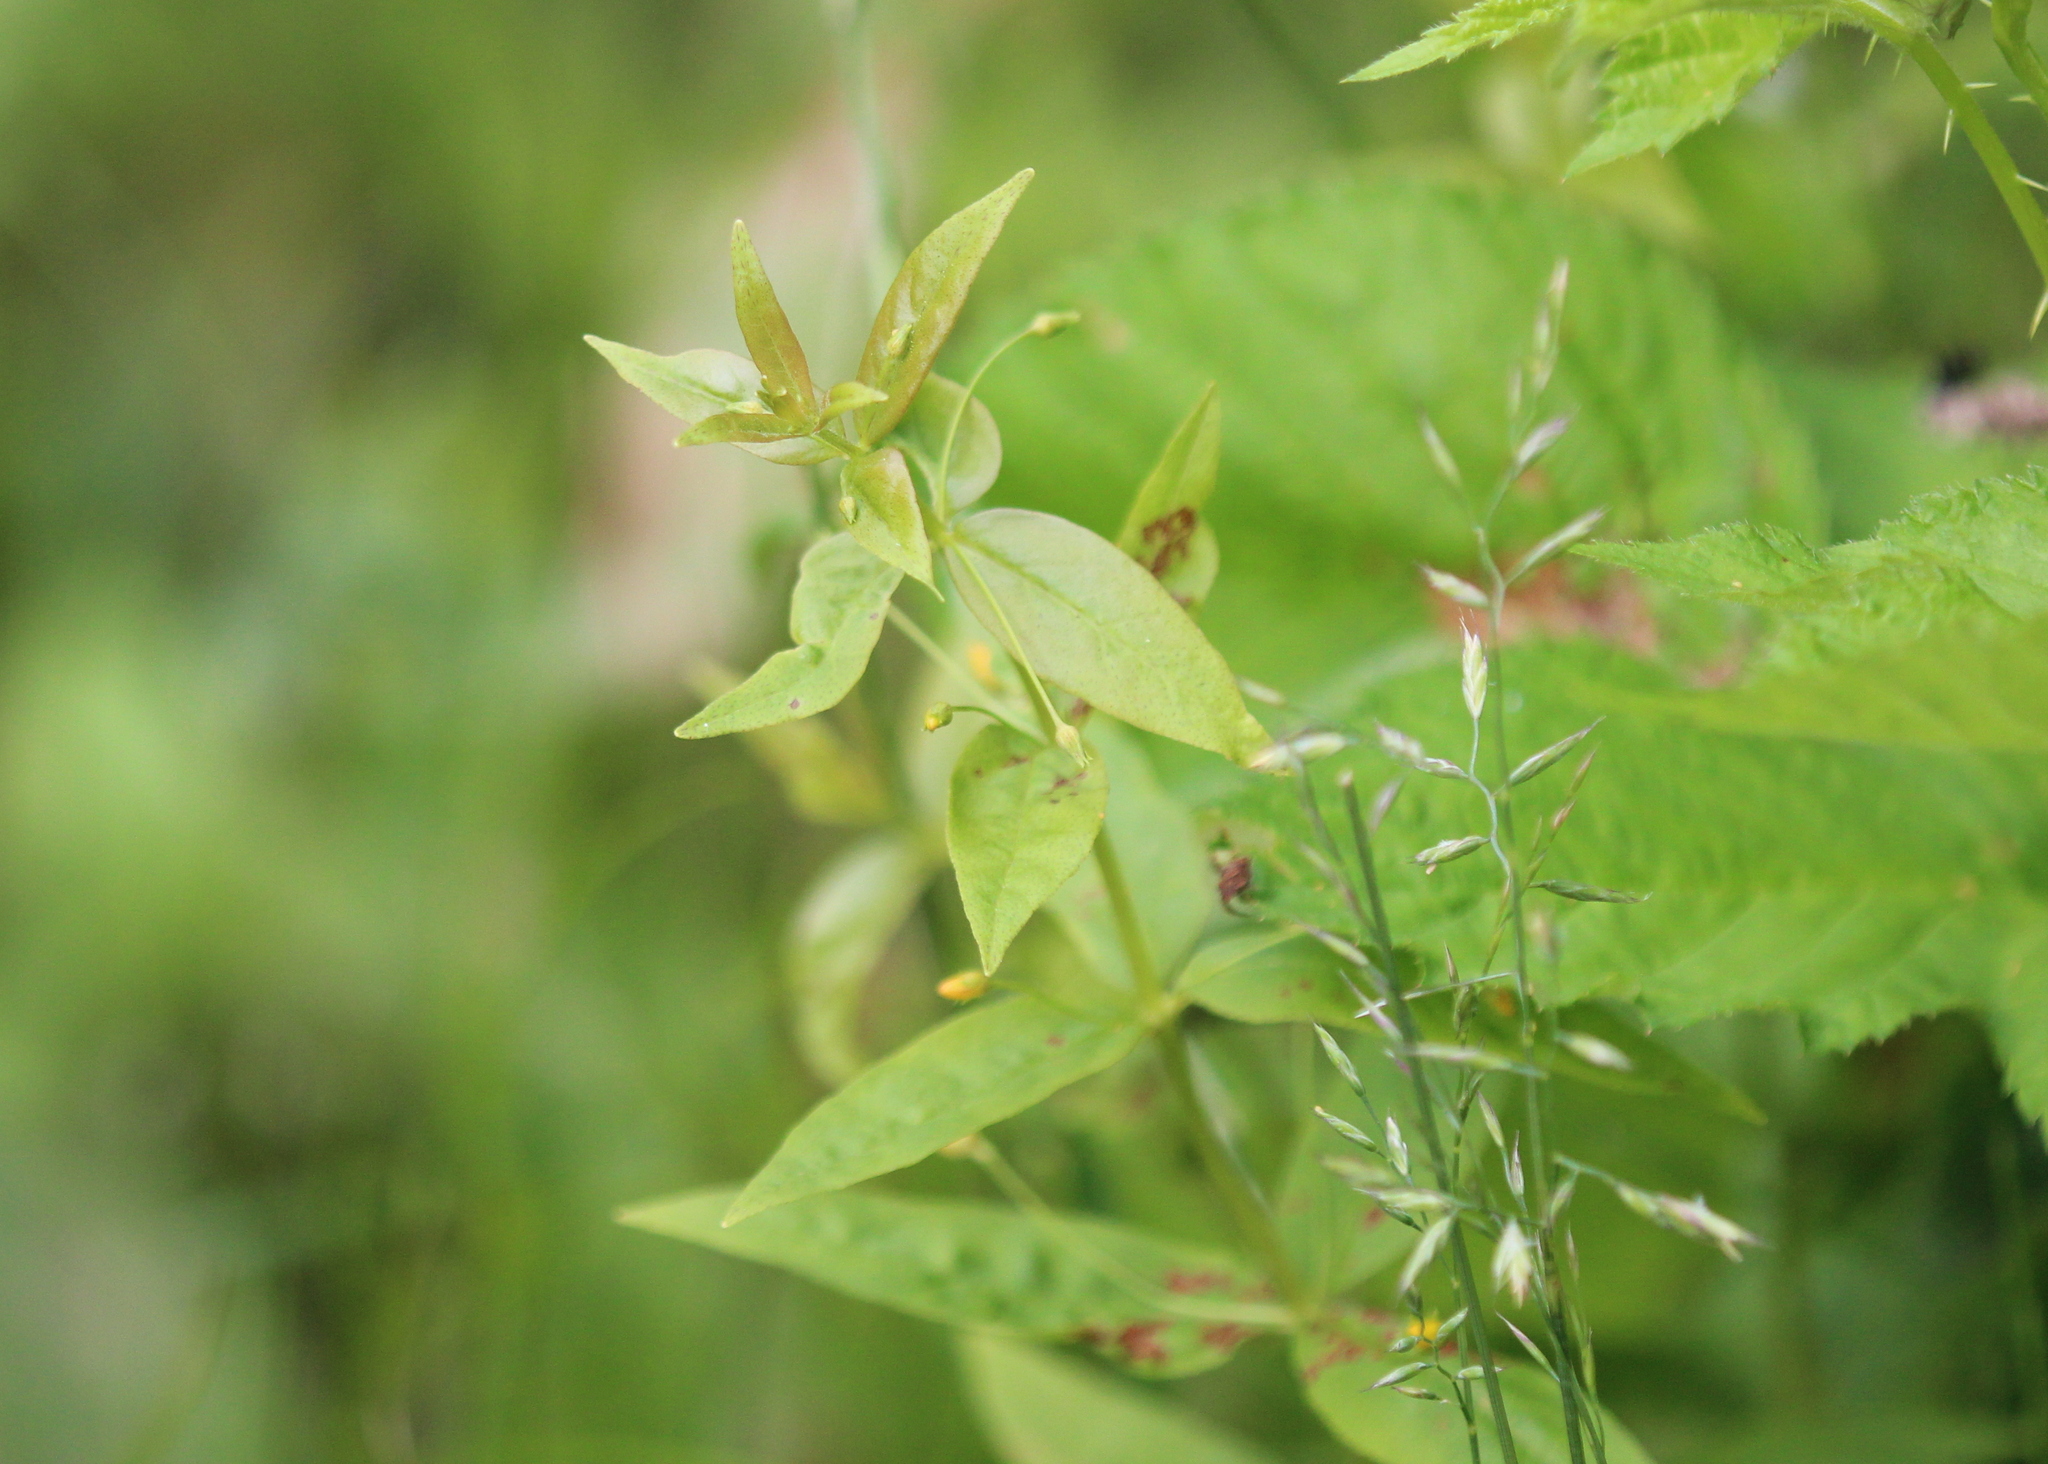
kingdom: Plantae
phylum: Tracheophyta
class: Magnoliopsida
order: Ericales
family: Primulaceae
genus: Lysimachia
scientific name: Lysimachia quadrifolia
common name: Whorled loosestrife
